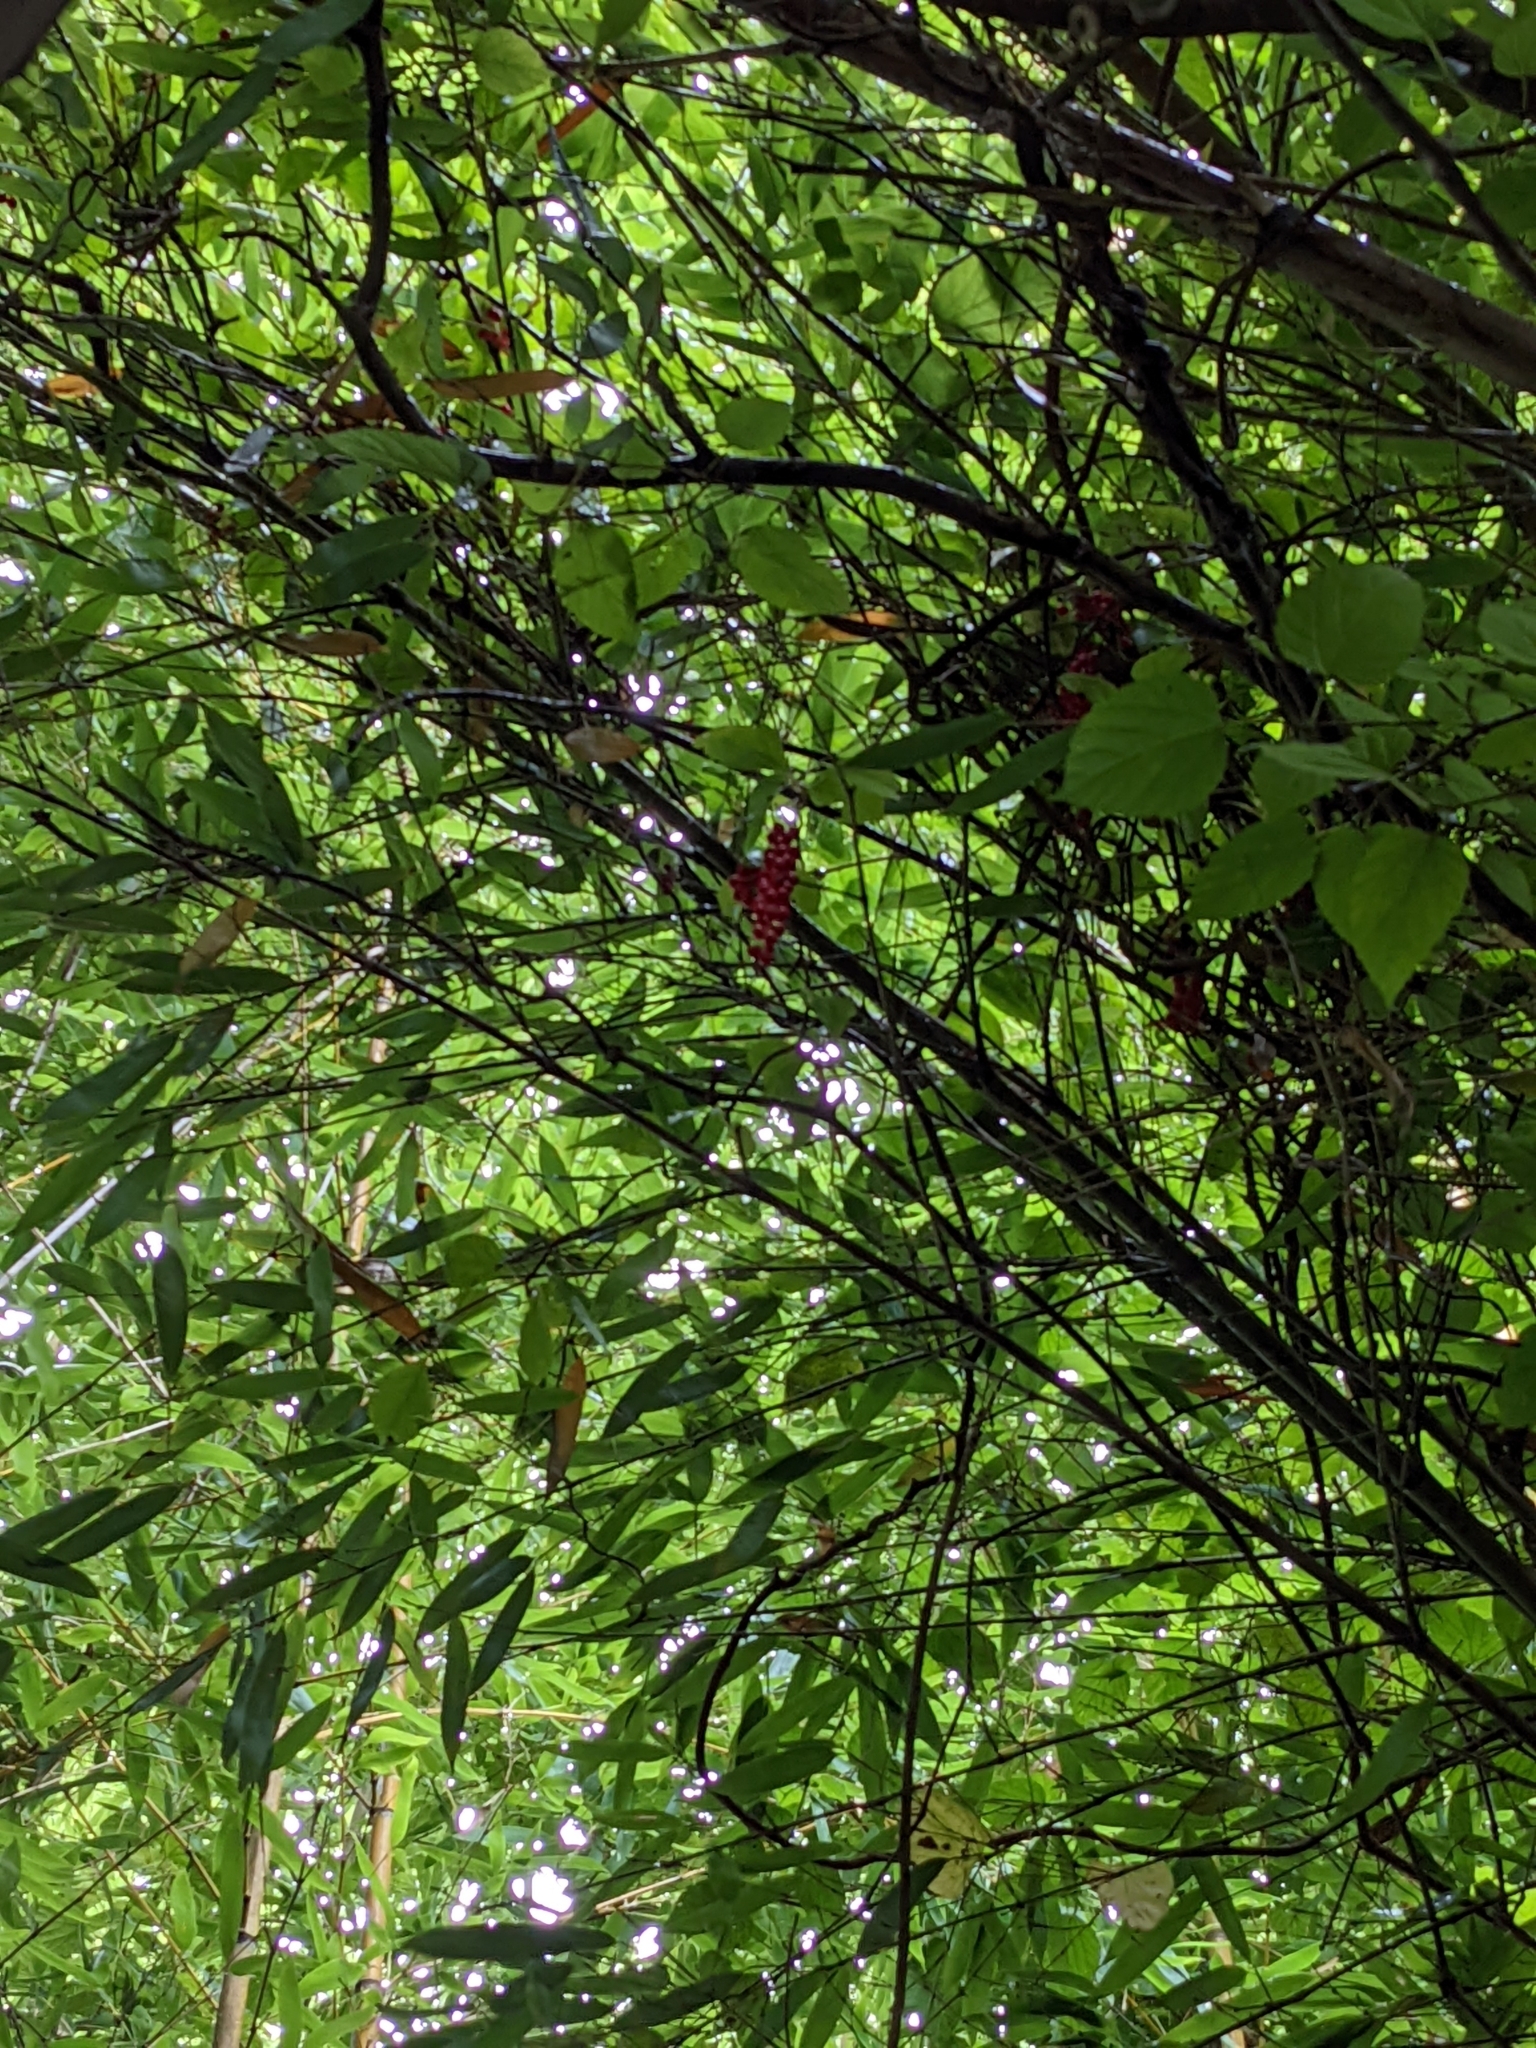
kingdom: Plantae
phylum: Tracheophyta
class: Magnoliopsida
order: Austrobaileyales
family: Schisandraceae
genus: Schisandra
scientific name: Schisandra arisanensis
